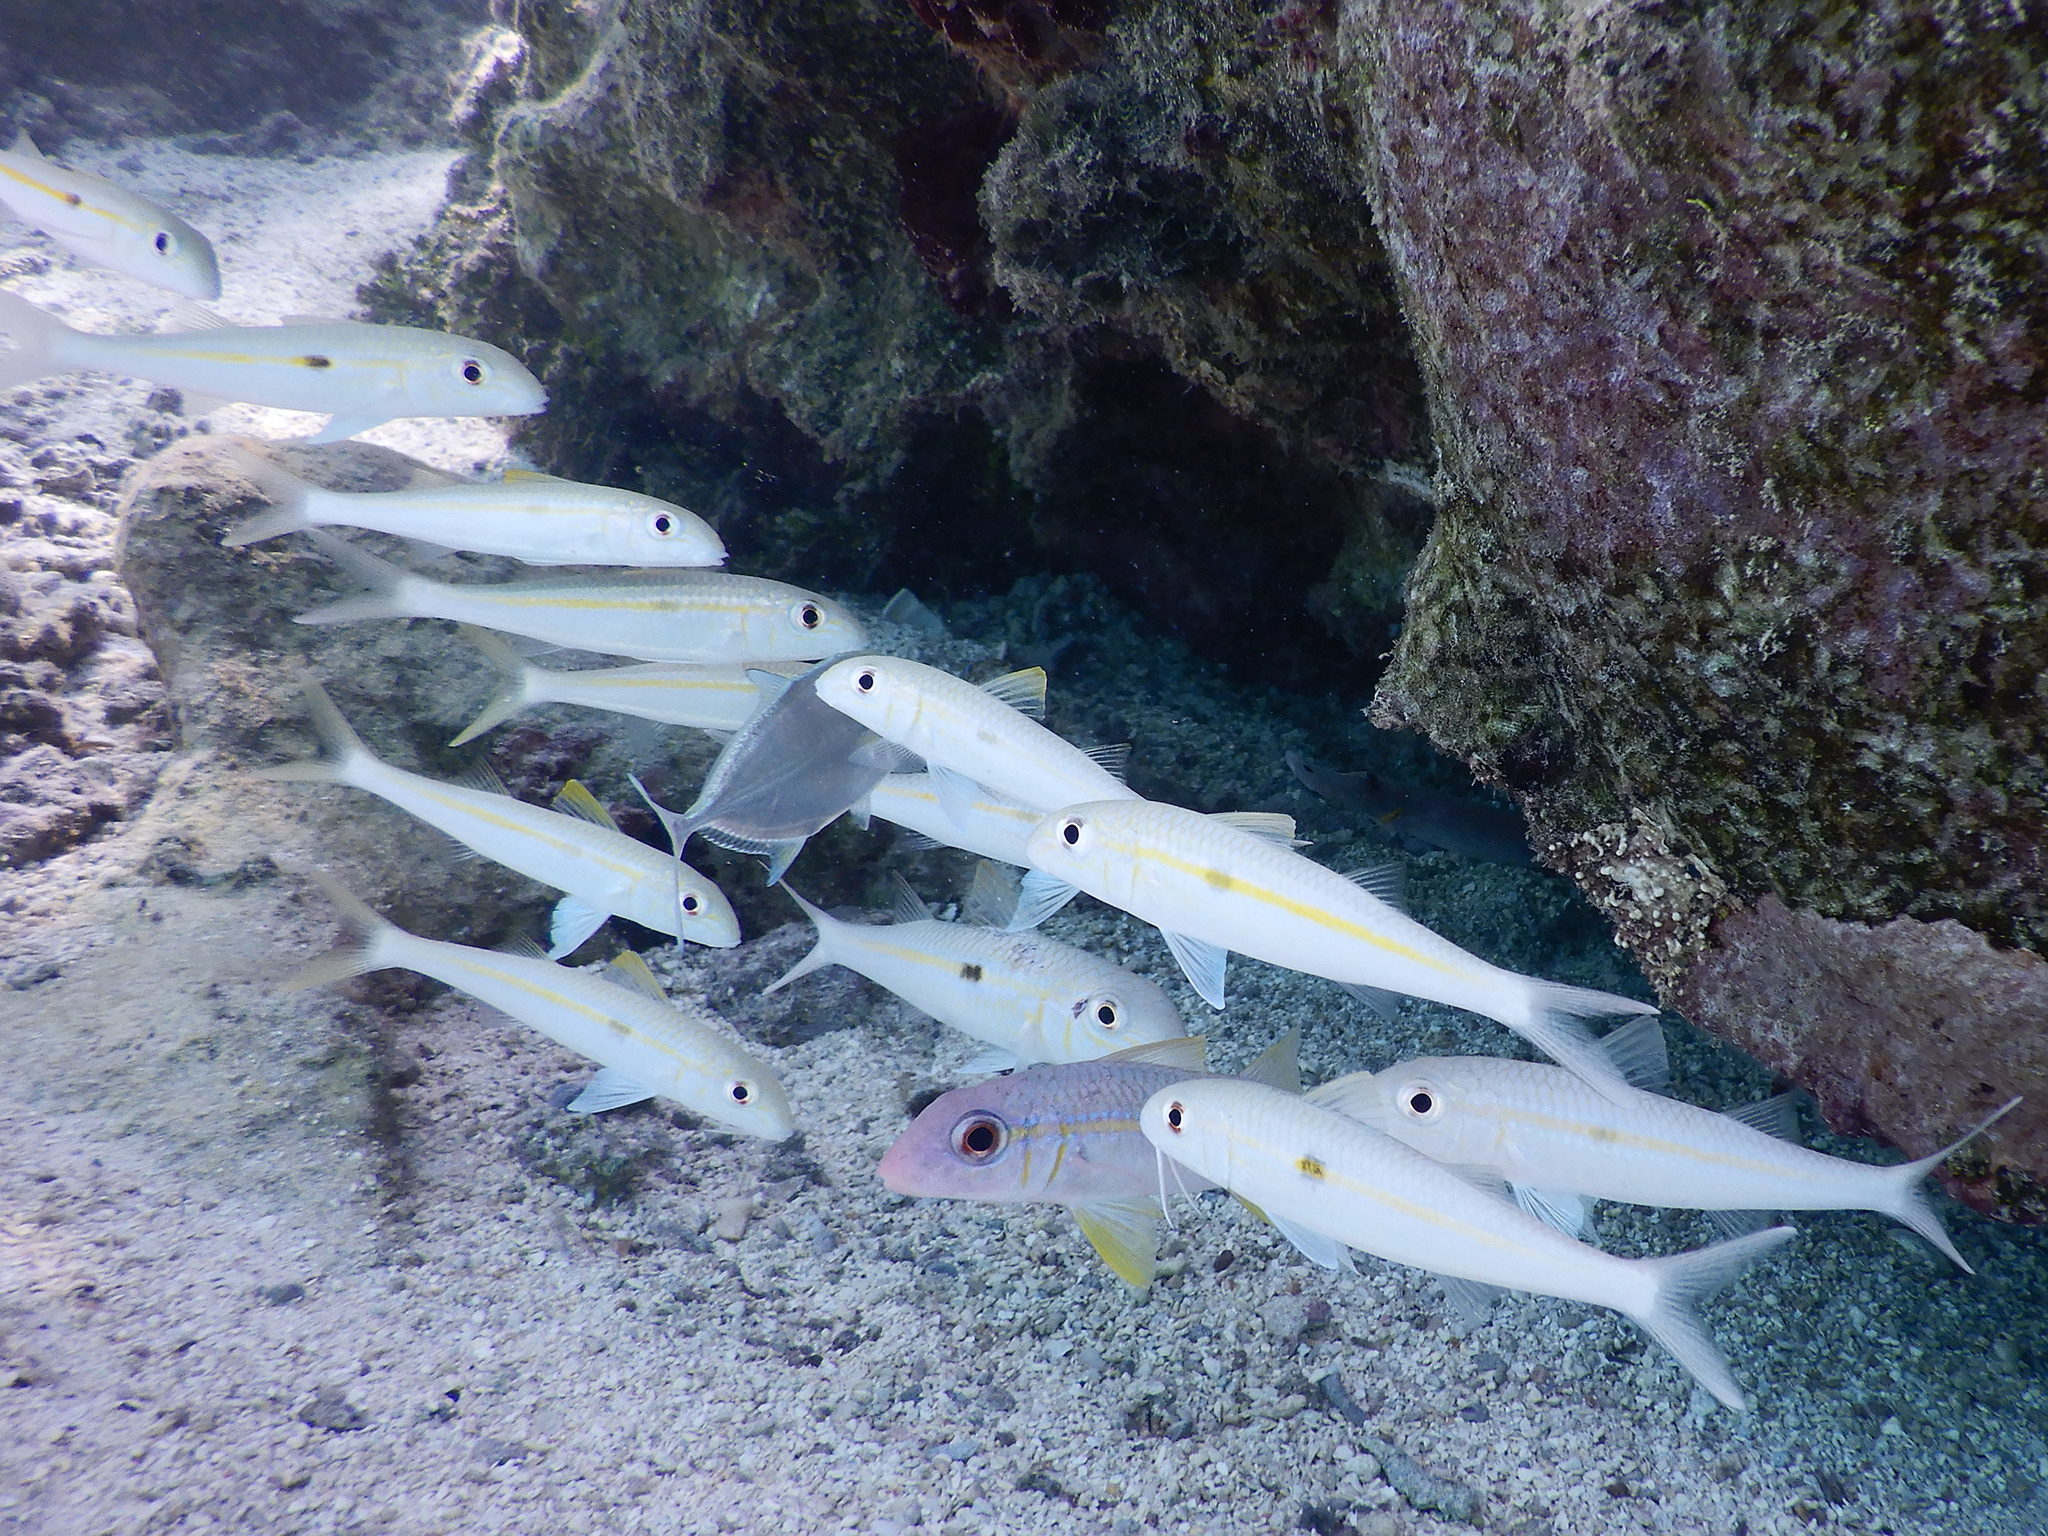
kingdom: Animalia
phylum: Chordata
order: Perciformes
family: Mullidae
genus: Mulloidichthys
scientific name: Mulloidichthys flavolineatus
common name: Yellowstripe goatfish
